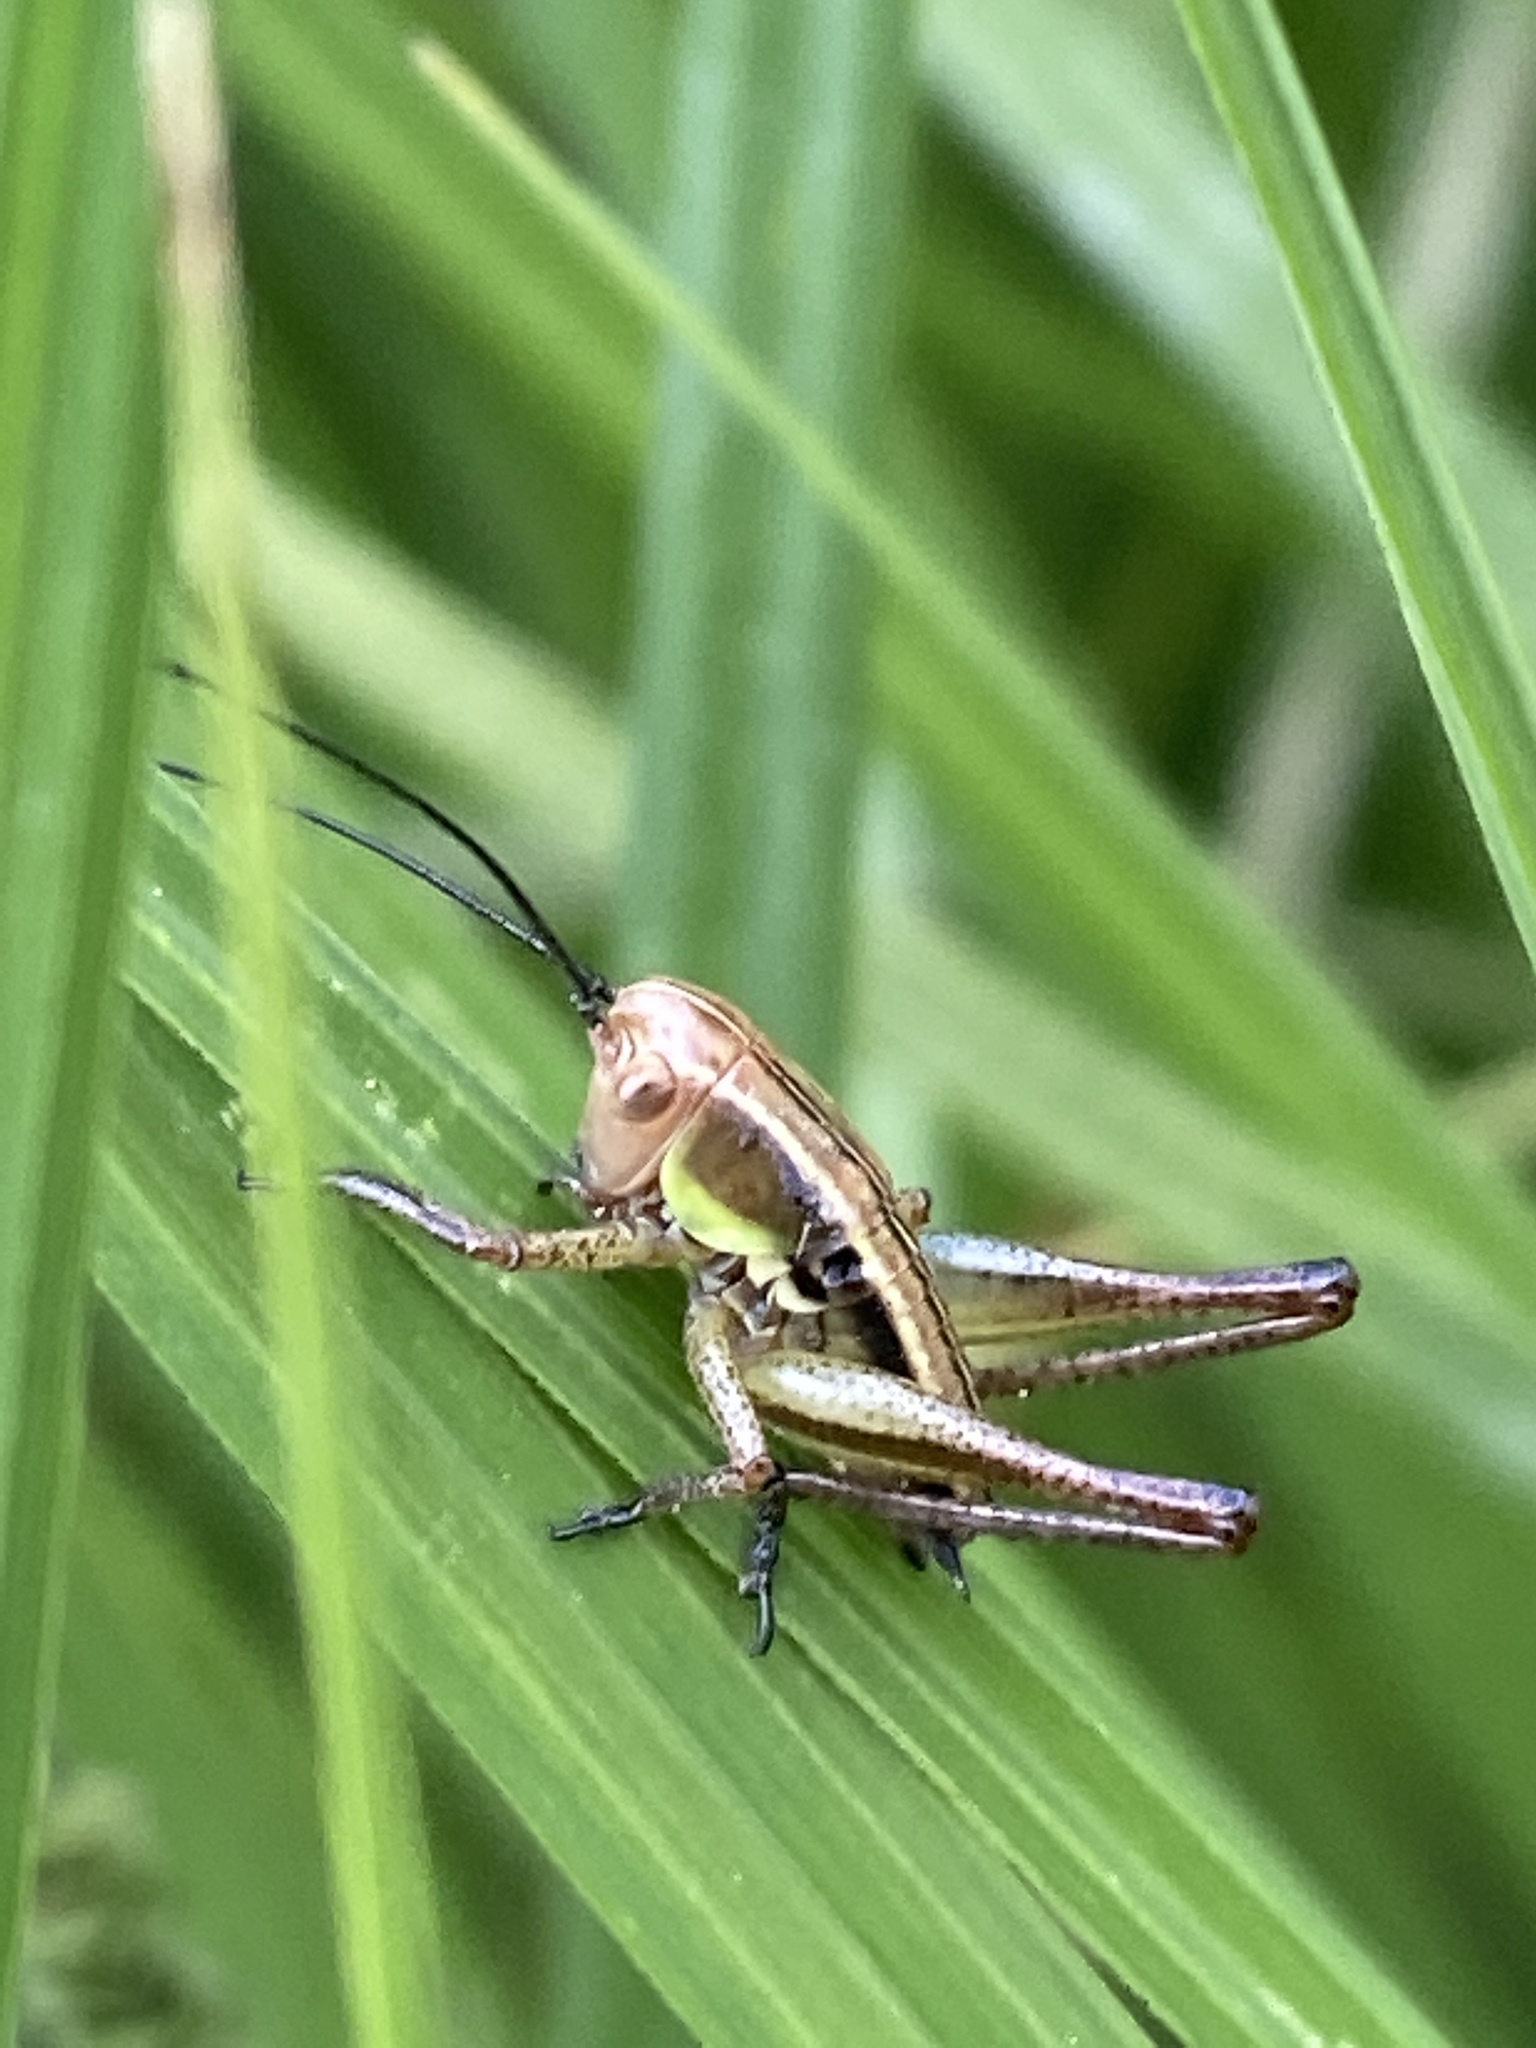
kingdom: Animalia
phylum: Arthropoda
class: Insecta
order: Orthoptera
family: Tettigoniidae
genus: Roeseliana
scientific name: Roeseliana roeselii
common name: Roesel's bush cricket
